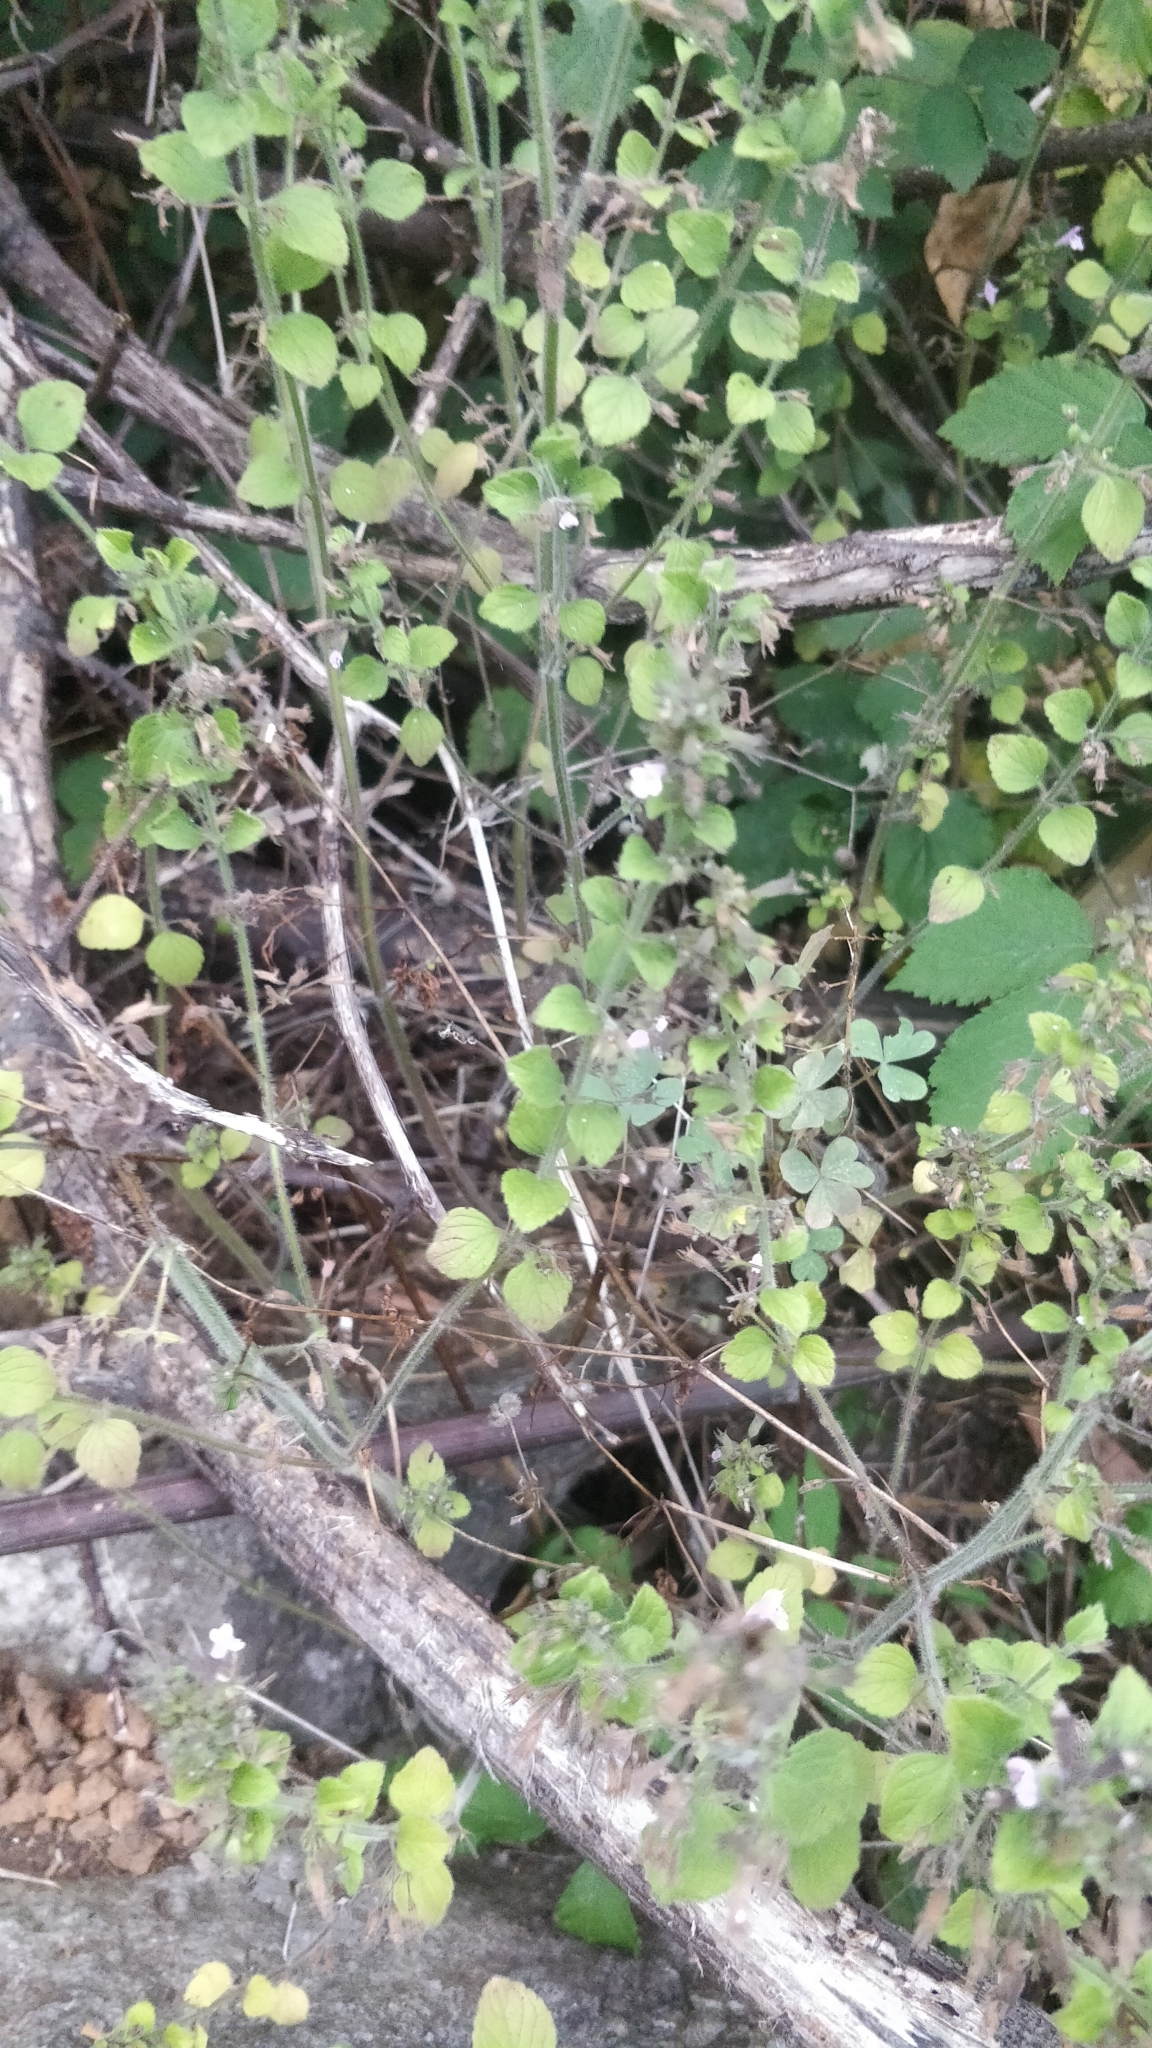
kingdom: Plantae
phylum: Tracheophyta
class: Magnoliopsida
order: Lamiales
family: Lamiaceae
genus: Clinopodium
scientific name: Clinopodium menthifolium
